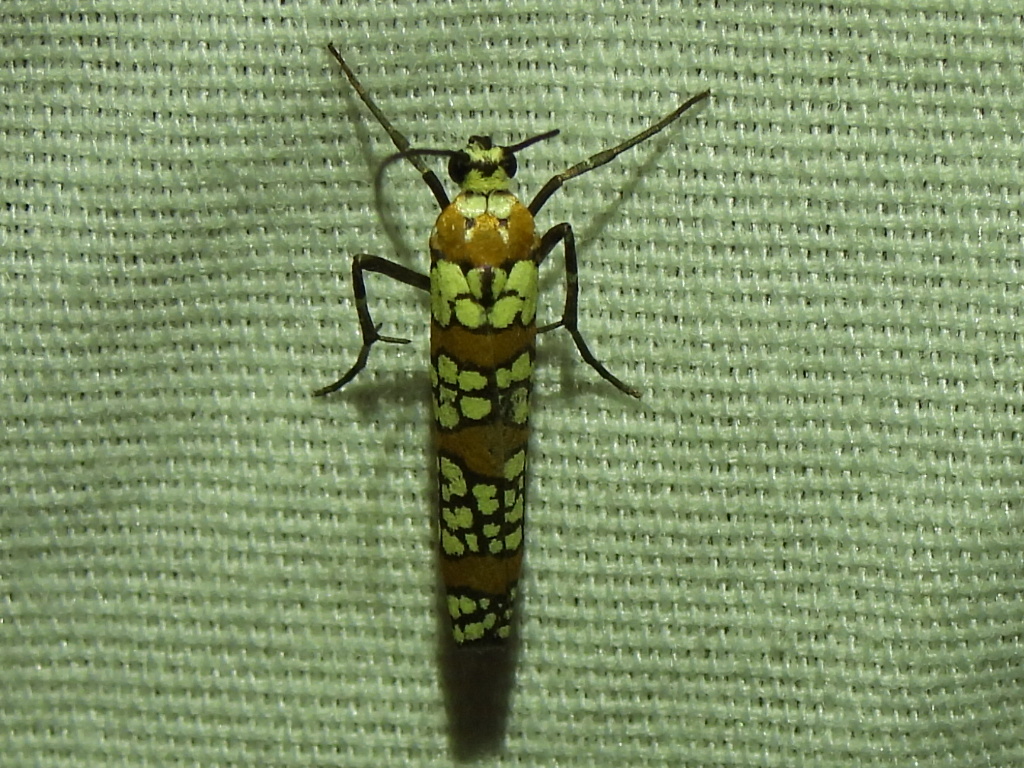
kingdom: Animalia
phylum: Arthropoda
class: Insecta
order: Lepidoptera
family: Attevidae
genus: Atteva
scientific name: Atteva punctella
